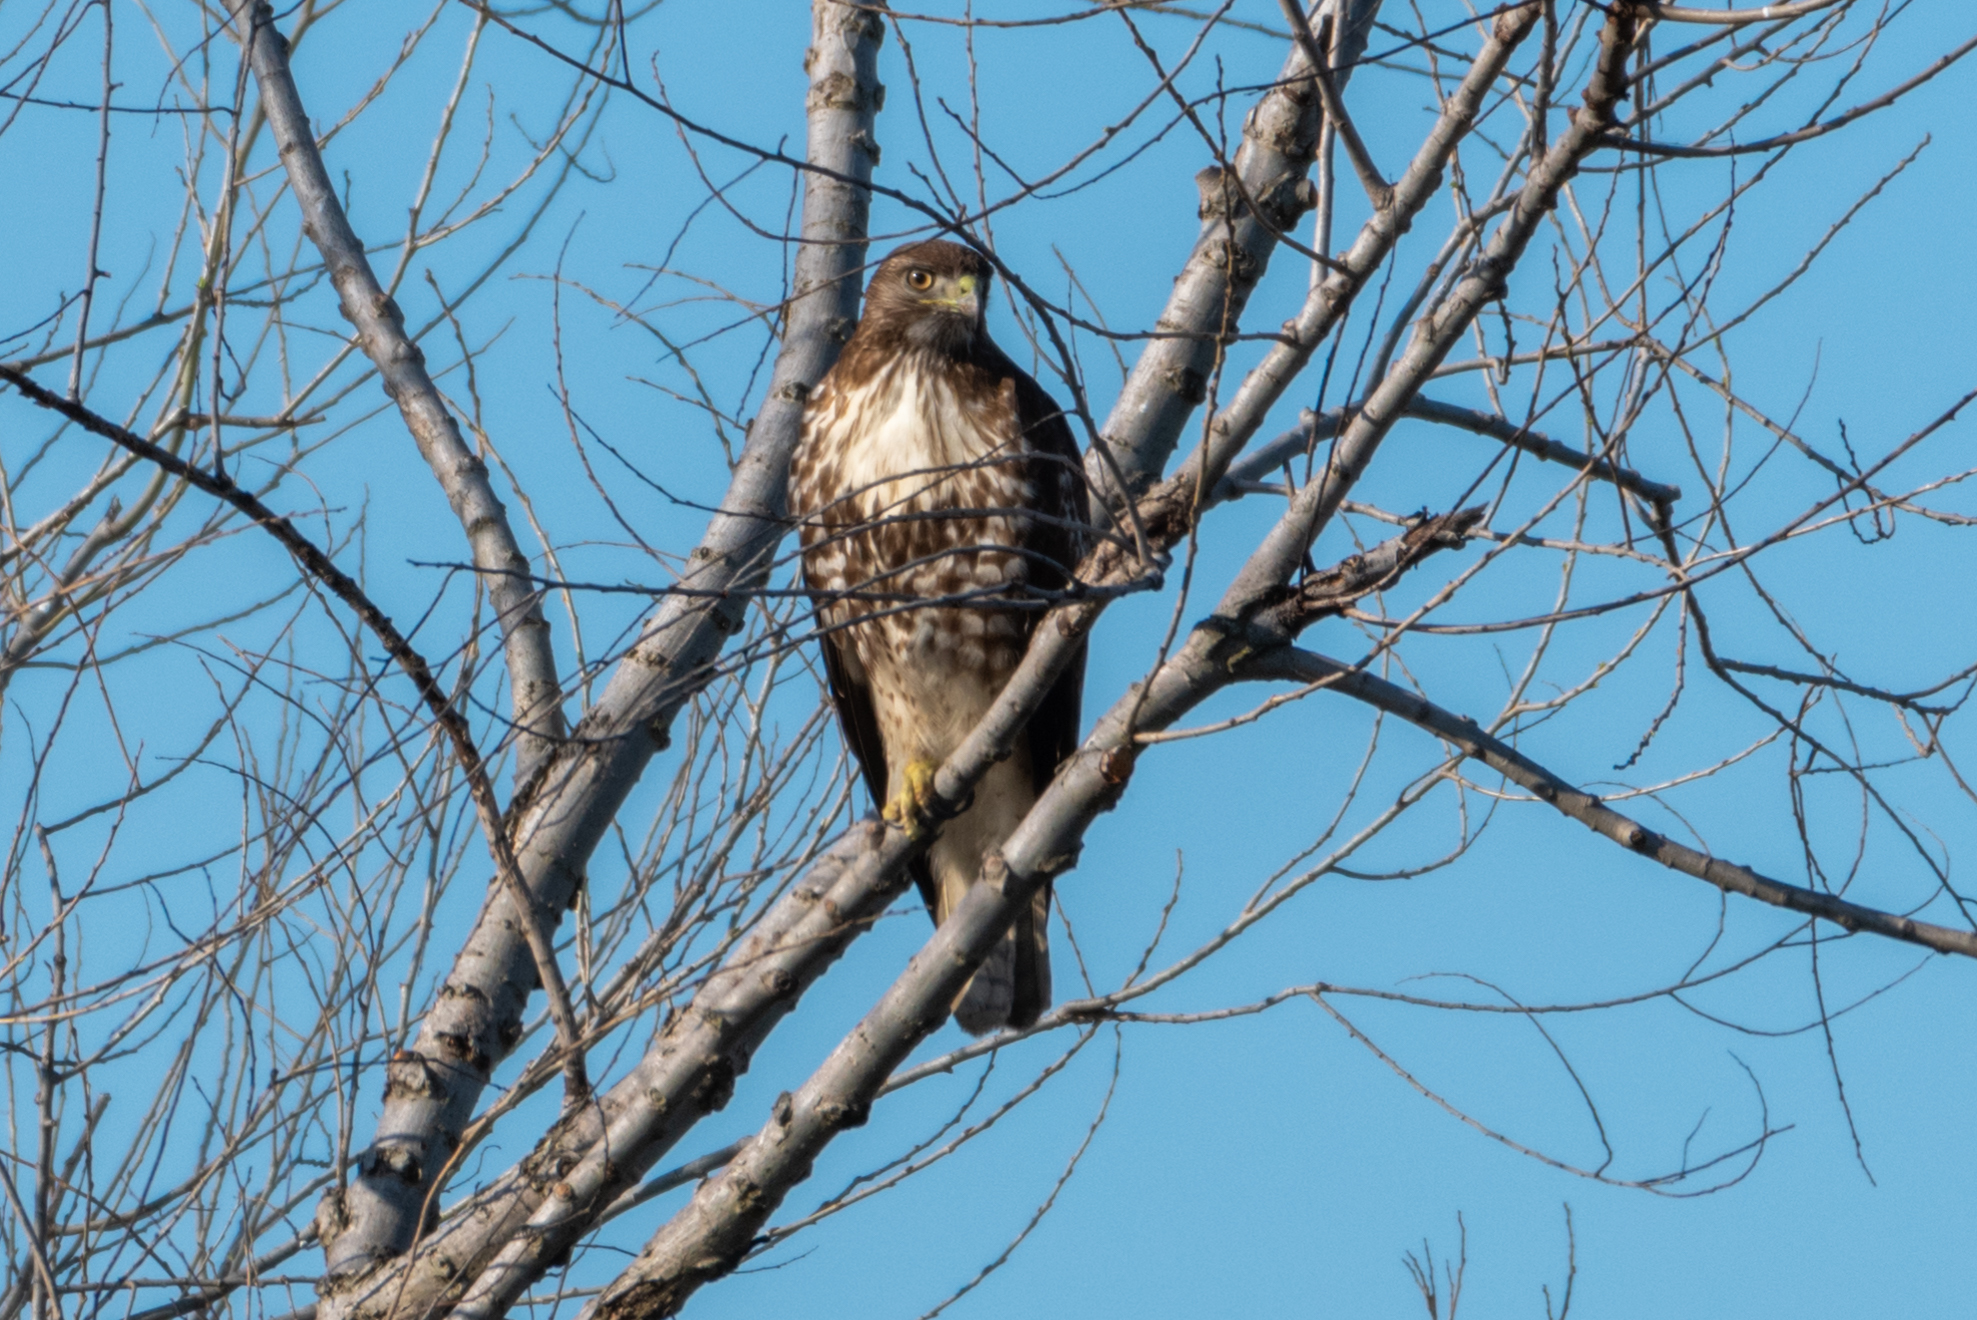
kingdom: Animalia
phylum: Chordata
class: Aves
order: Accipitriformes
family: Accipitridae
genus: Buteo
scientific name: Buteo jamaicensis
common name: Red-tailed hawk
